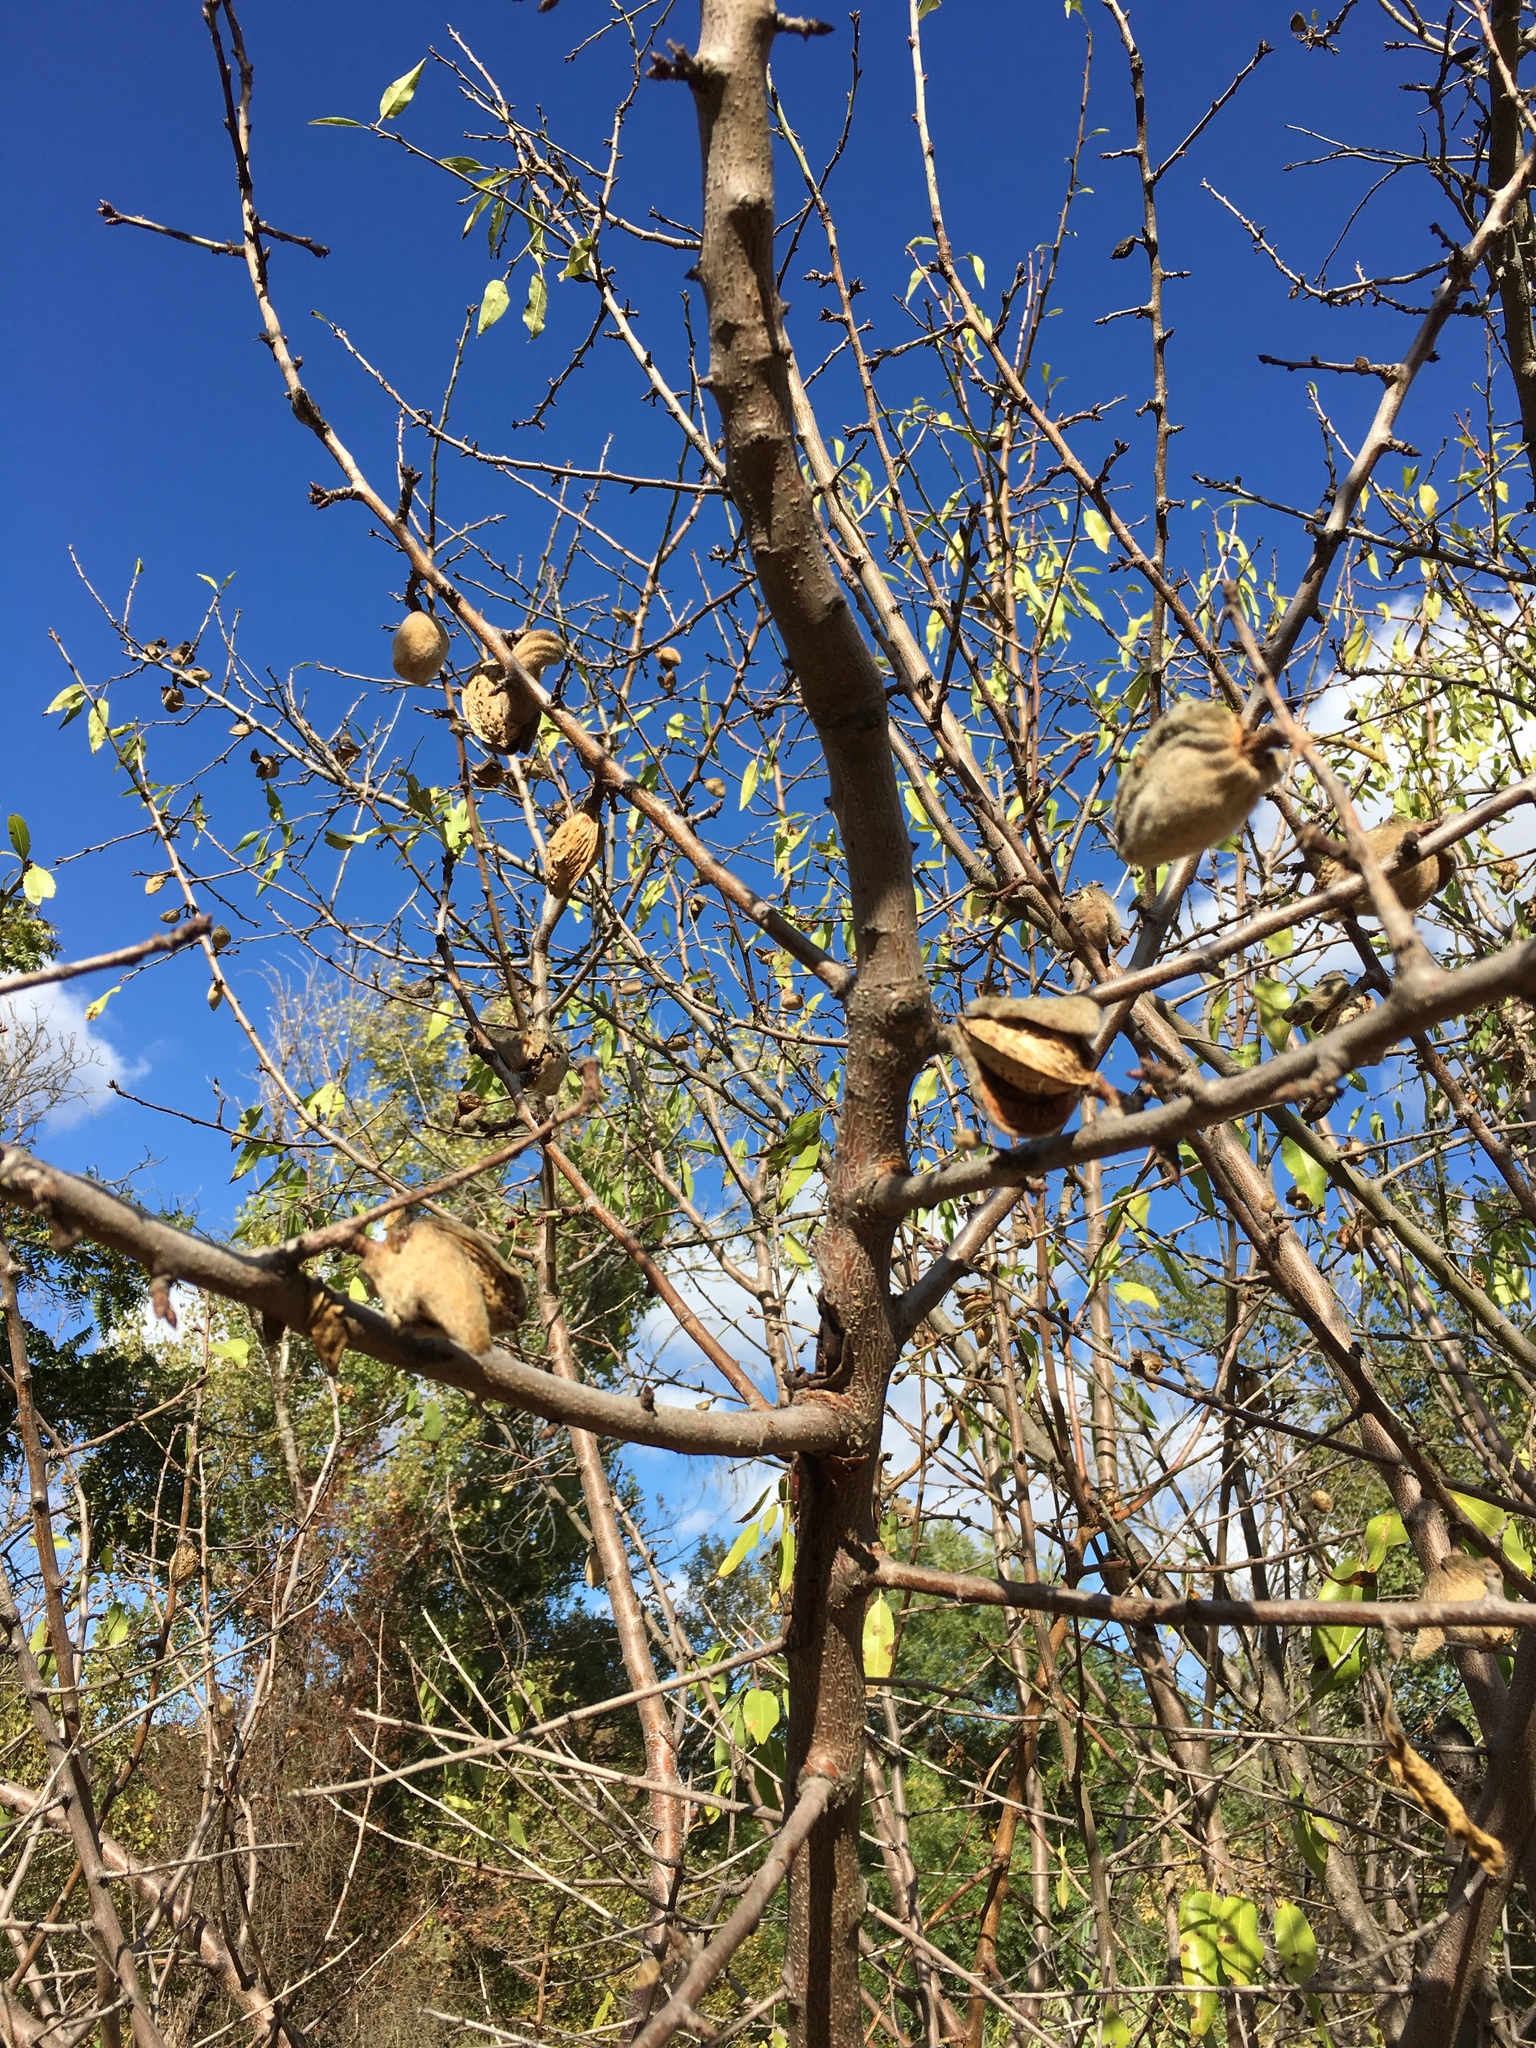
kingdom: Plantae
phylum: Tracheophyta
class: Magnoliopsida
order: Rosales
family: Rosaceae
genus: Prunus
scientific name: Prunus amygdalus
